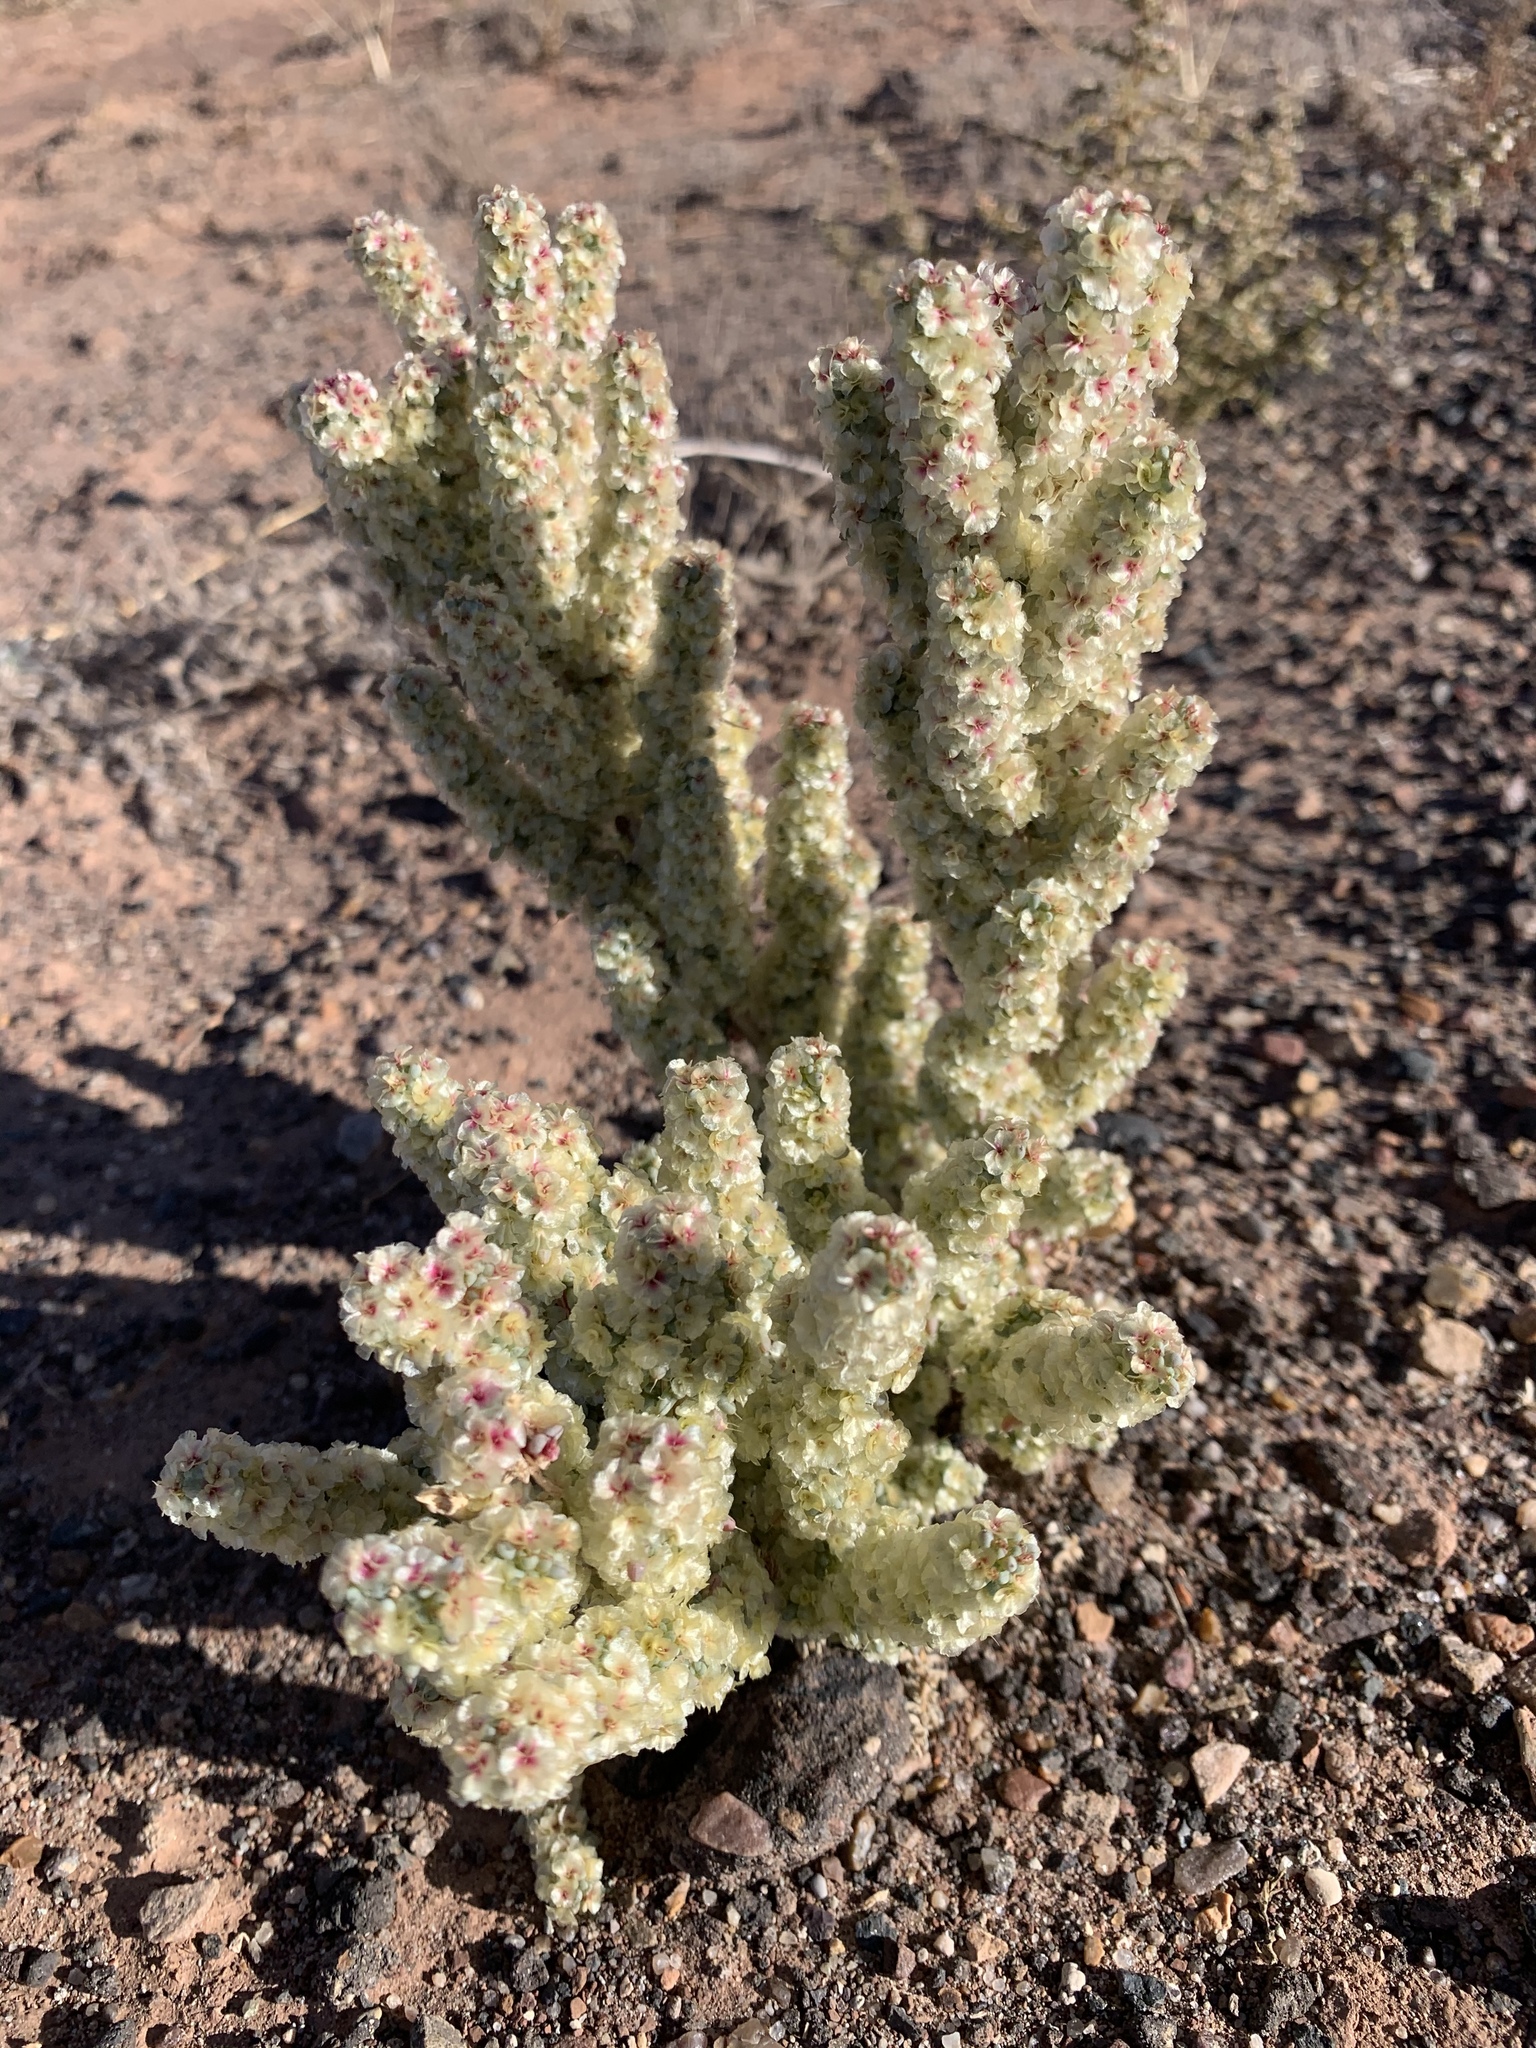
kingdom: Plantae
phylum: Tracheophyta
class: Magnoliopsida
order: Caryophyllales
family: Amaranthaceae
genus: Halogeton
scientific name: Halogeton glomeratus
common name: Saltlover
